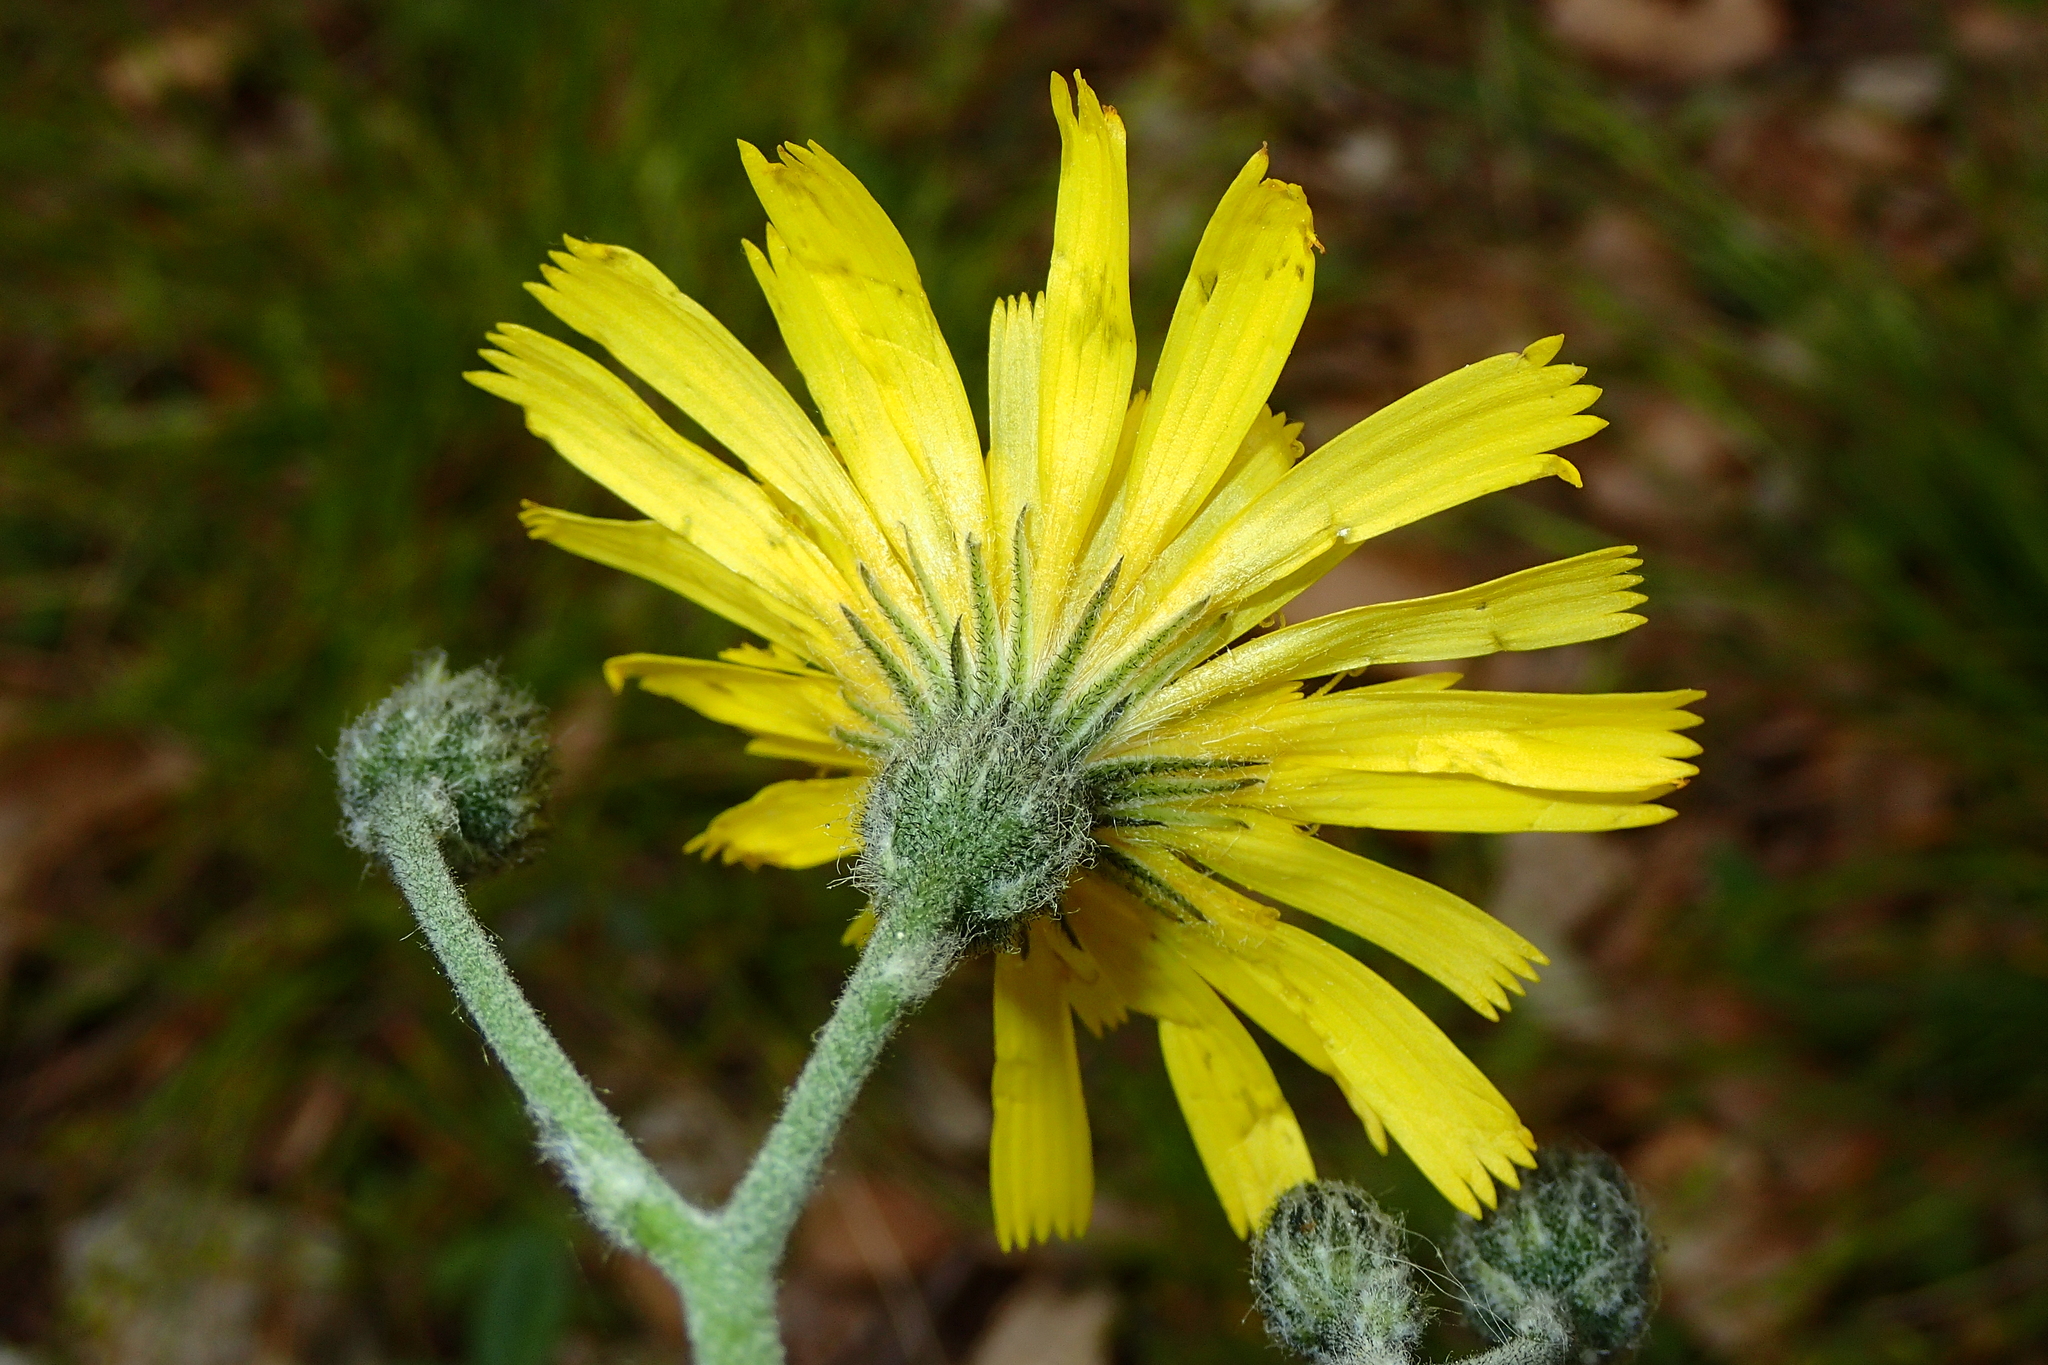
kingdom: Plantae
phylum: Tracheophyta
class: Magnoliopsida
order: Asterales
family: Asteraceae
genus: Hieracium
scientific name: Hieracium glaucinum
